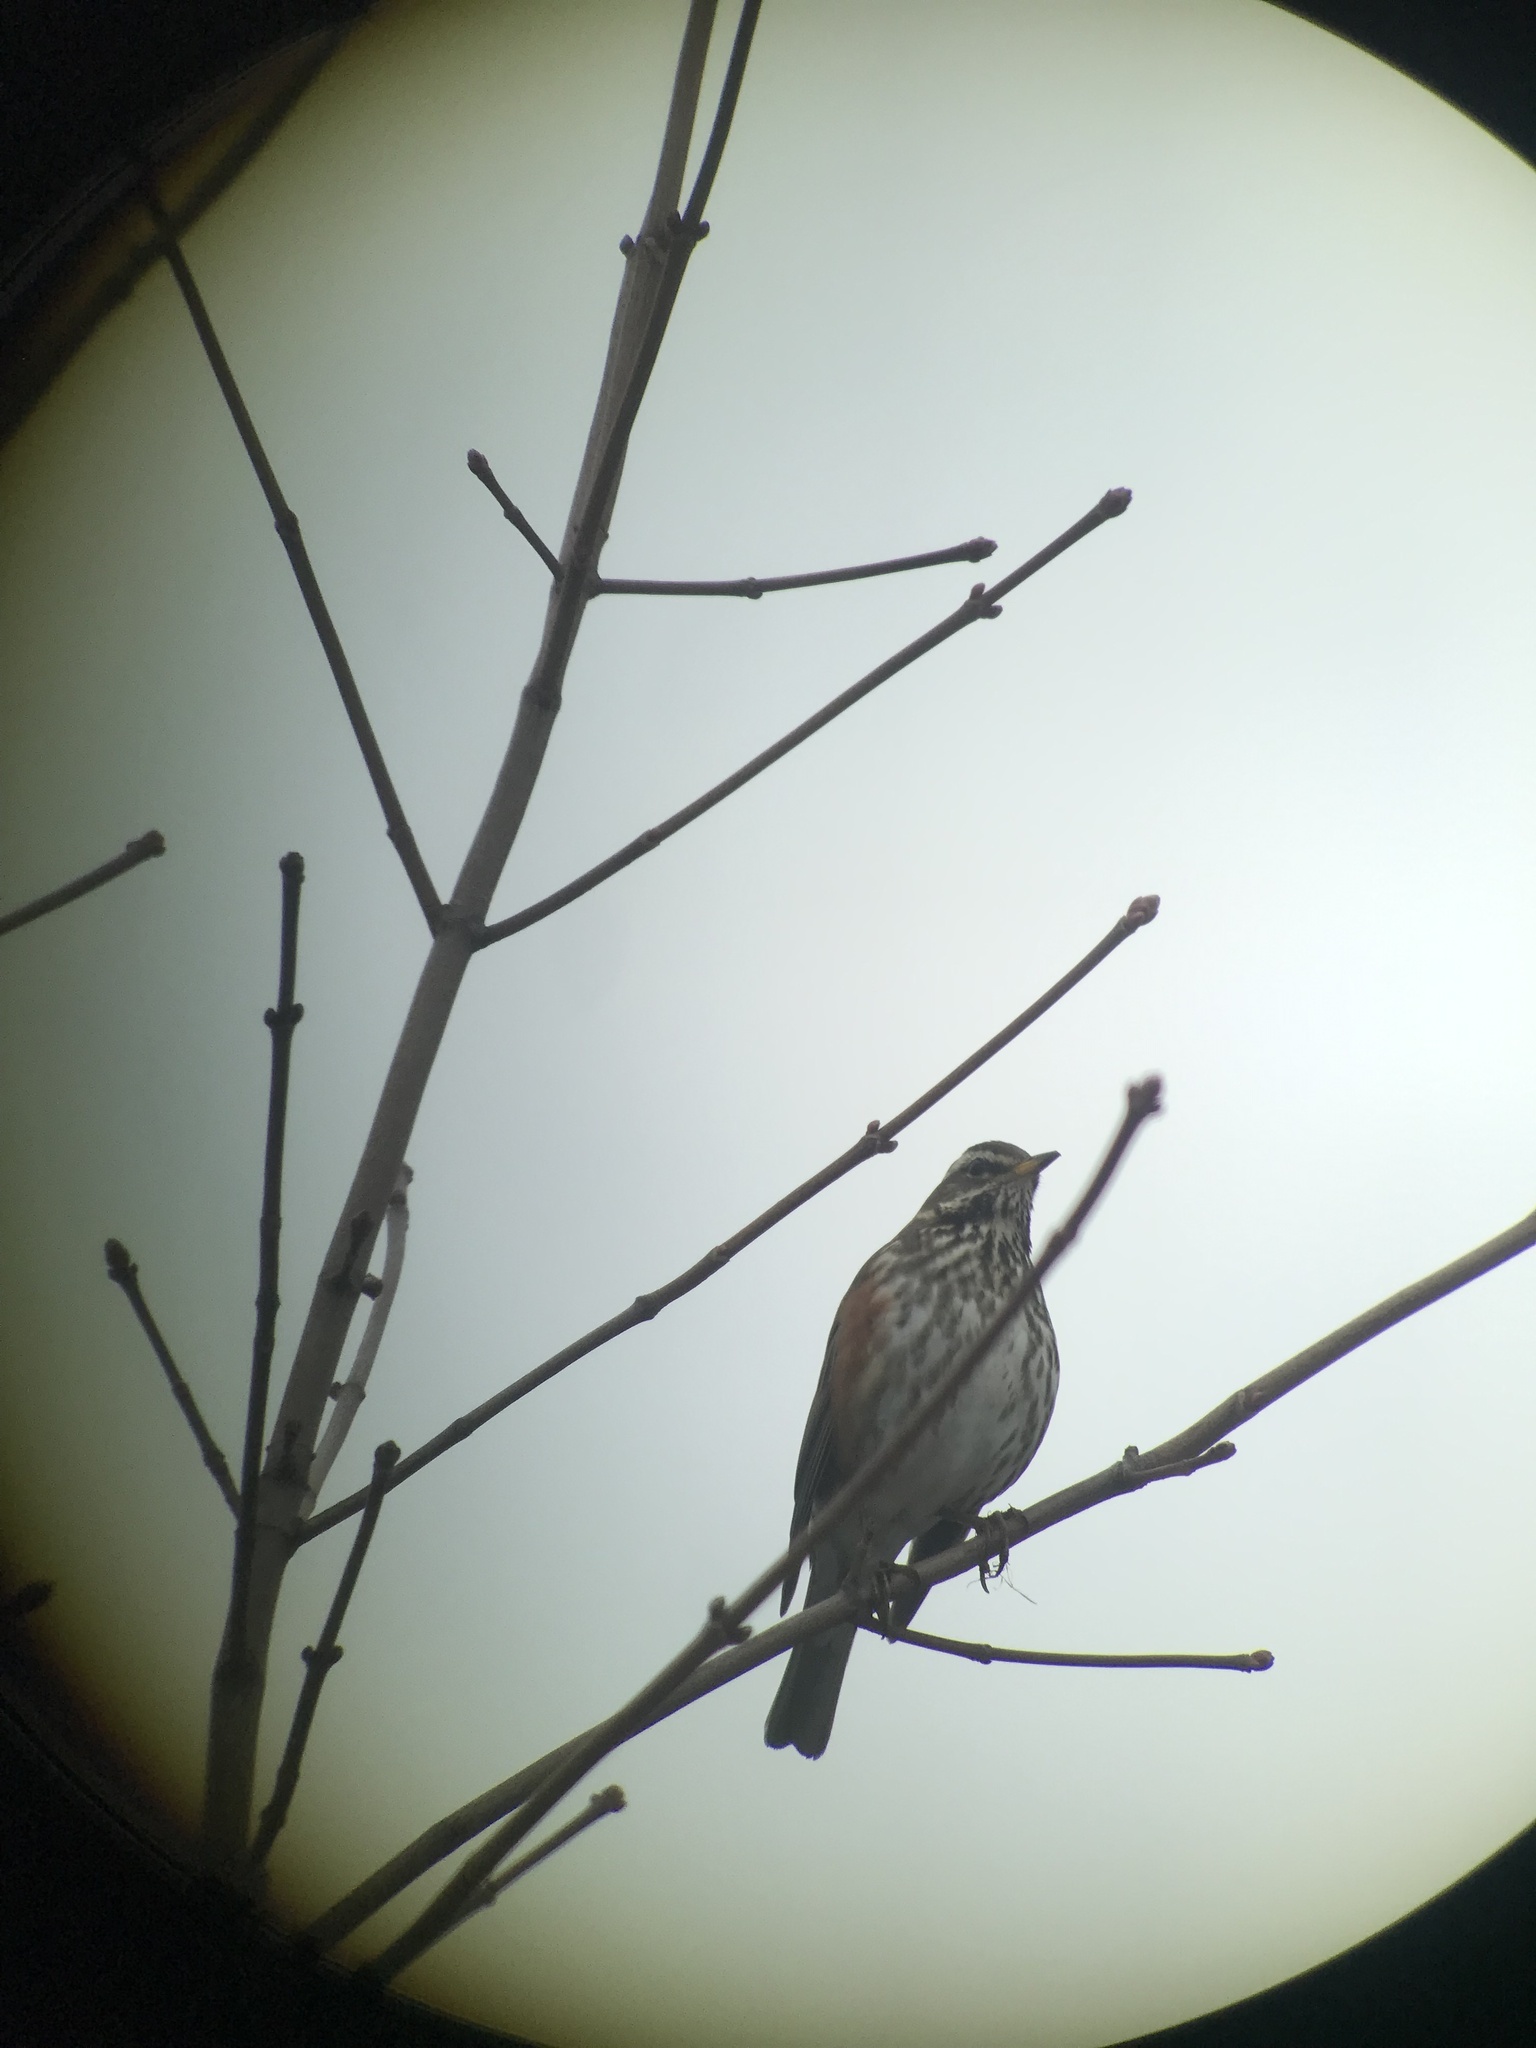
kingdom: Animalia
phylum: Chordata
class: Aves
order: Passeriformes
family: Turdidae
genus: Turdus
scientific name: Turdus iliacus
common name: Redwing
